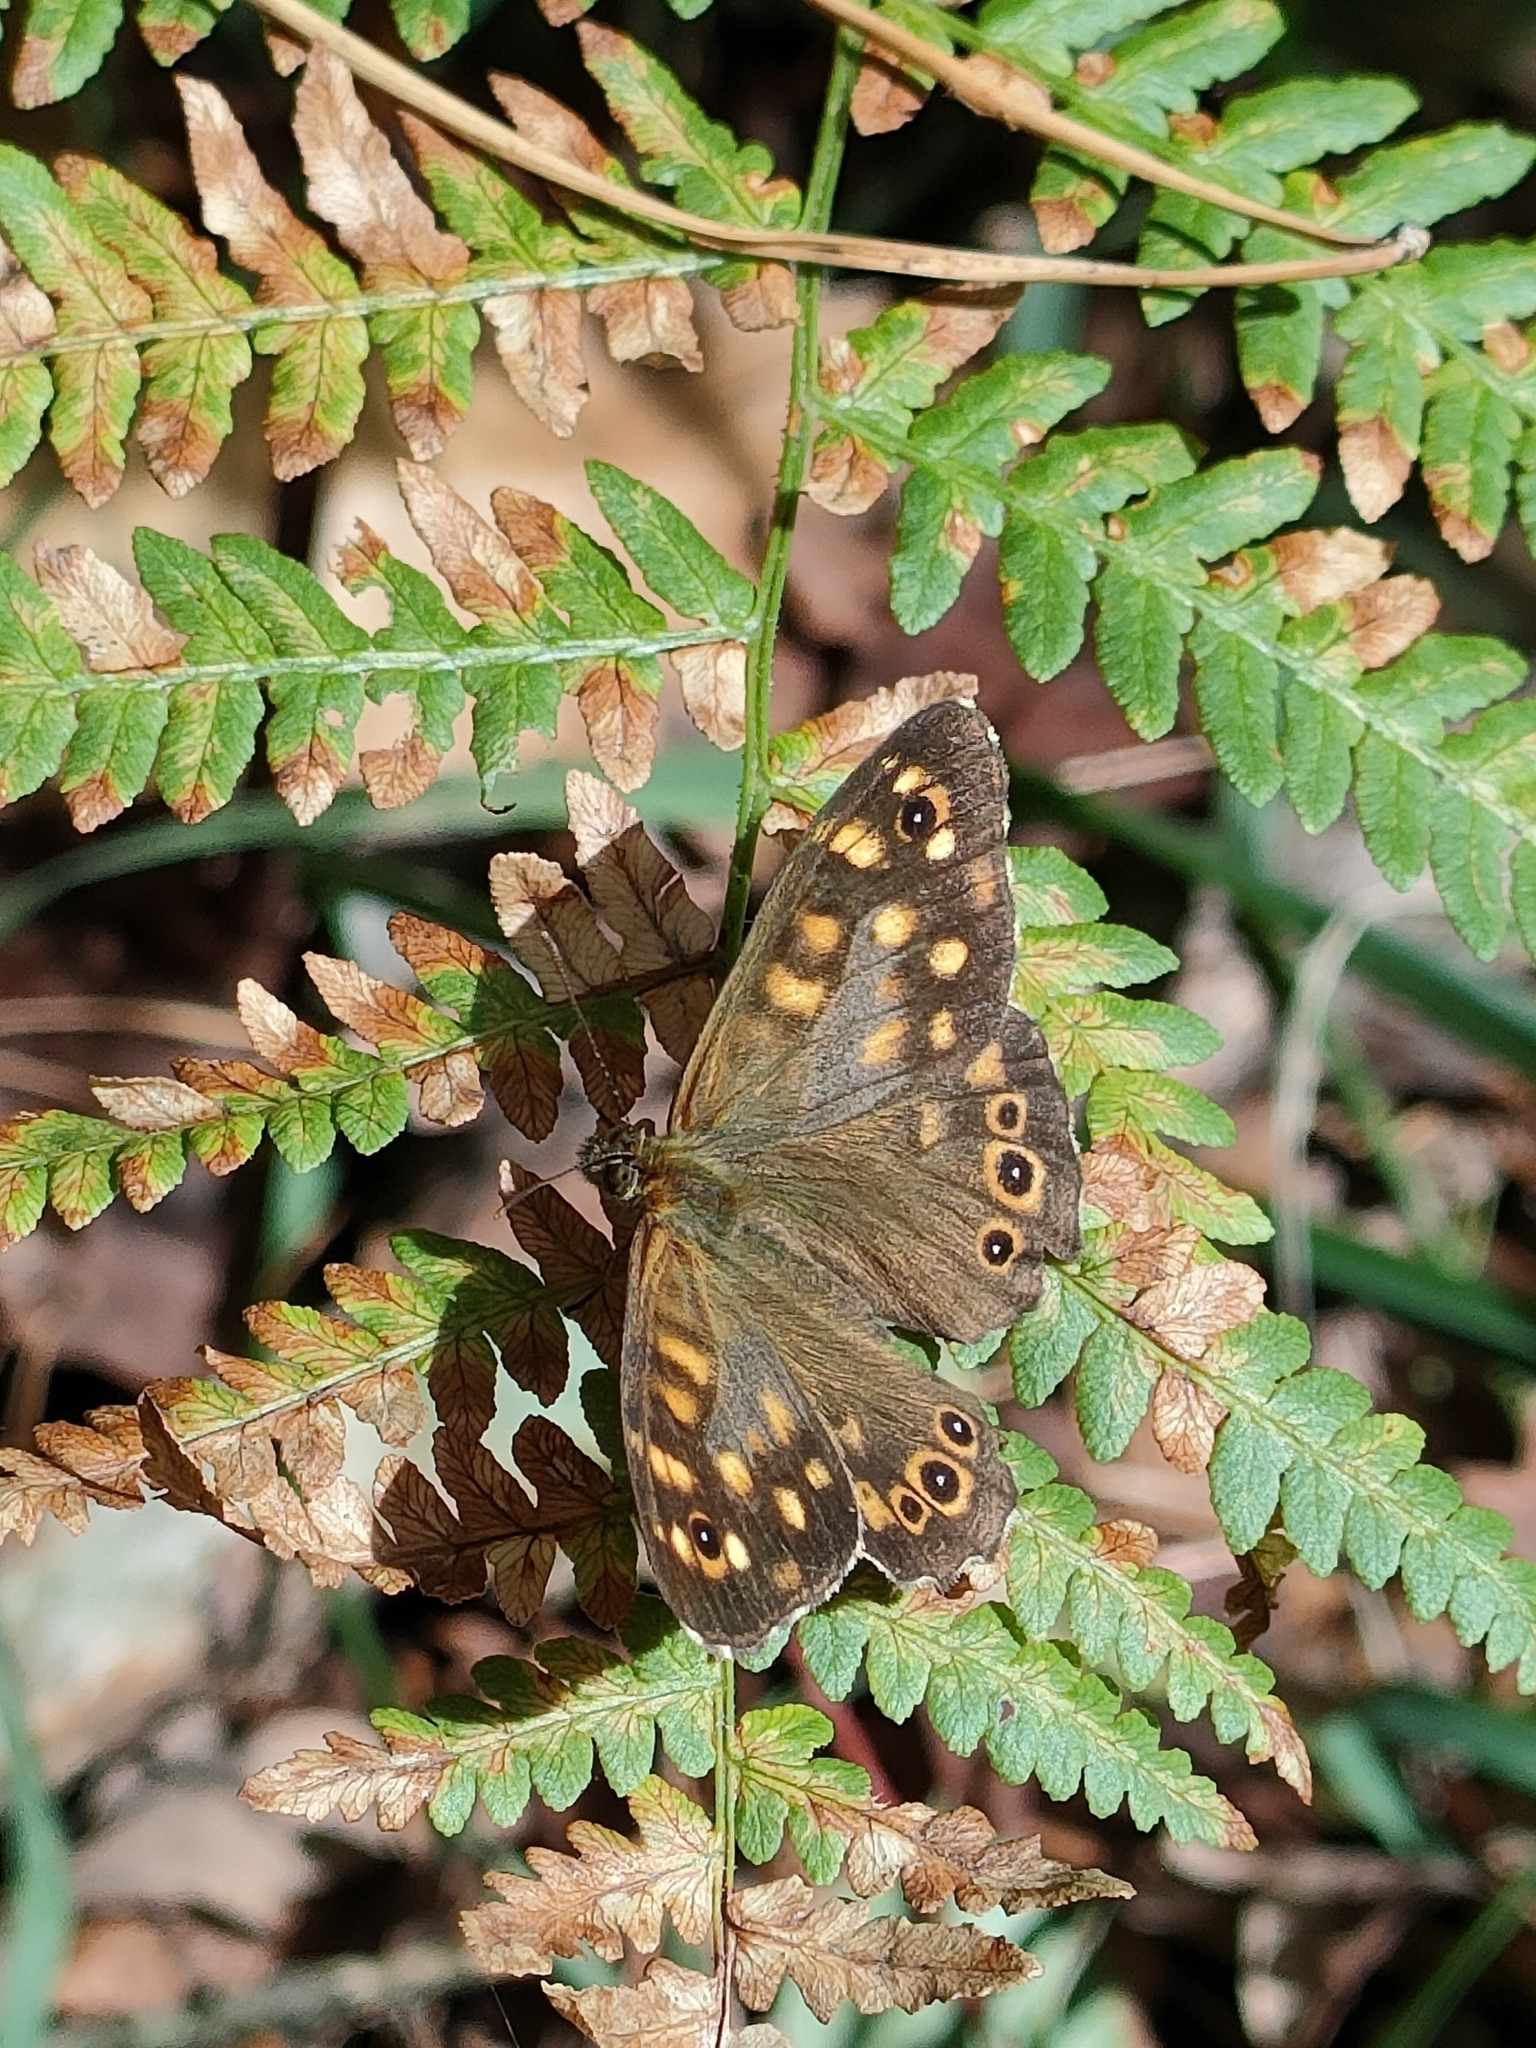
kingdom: Animalia
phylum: Arthropoda
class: Insecta
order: Lepidoptera
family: Nymphalidae
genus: Pararge
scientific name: Pararge aegeria
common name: Speckled wood
